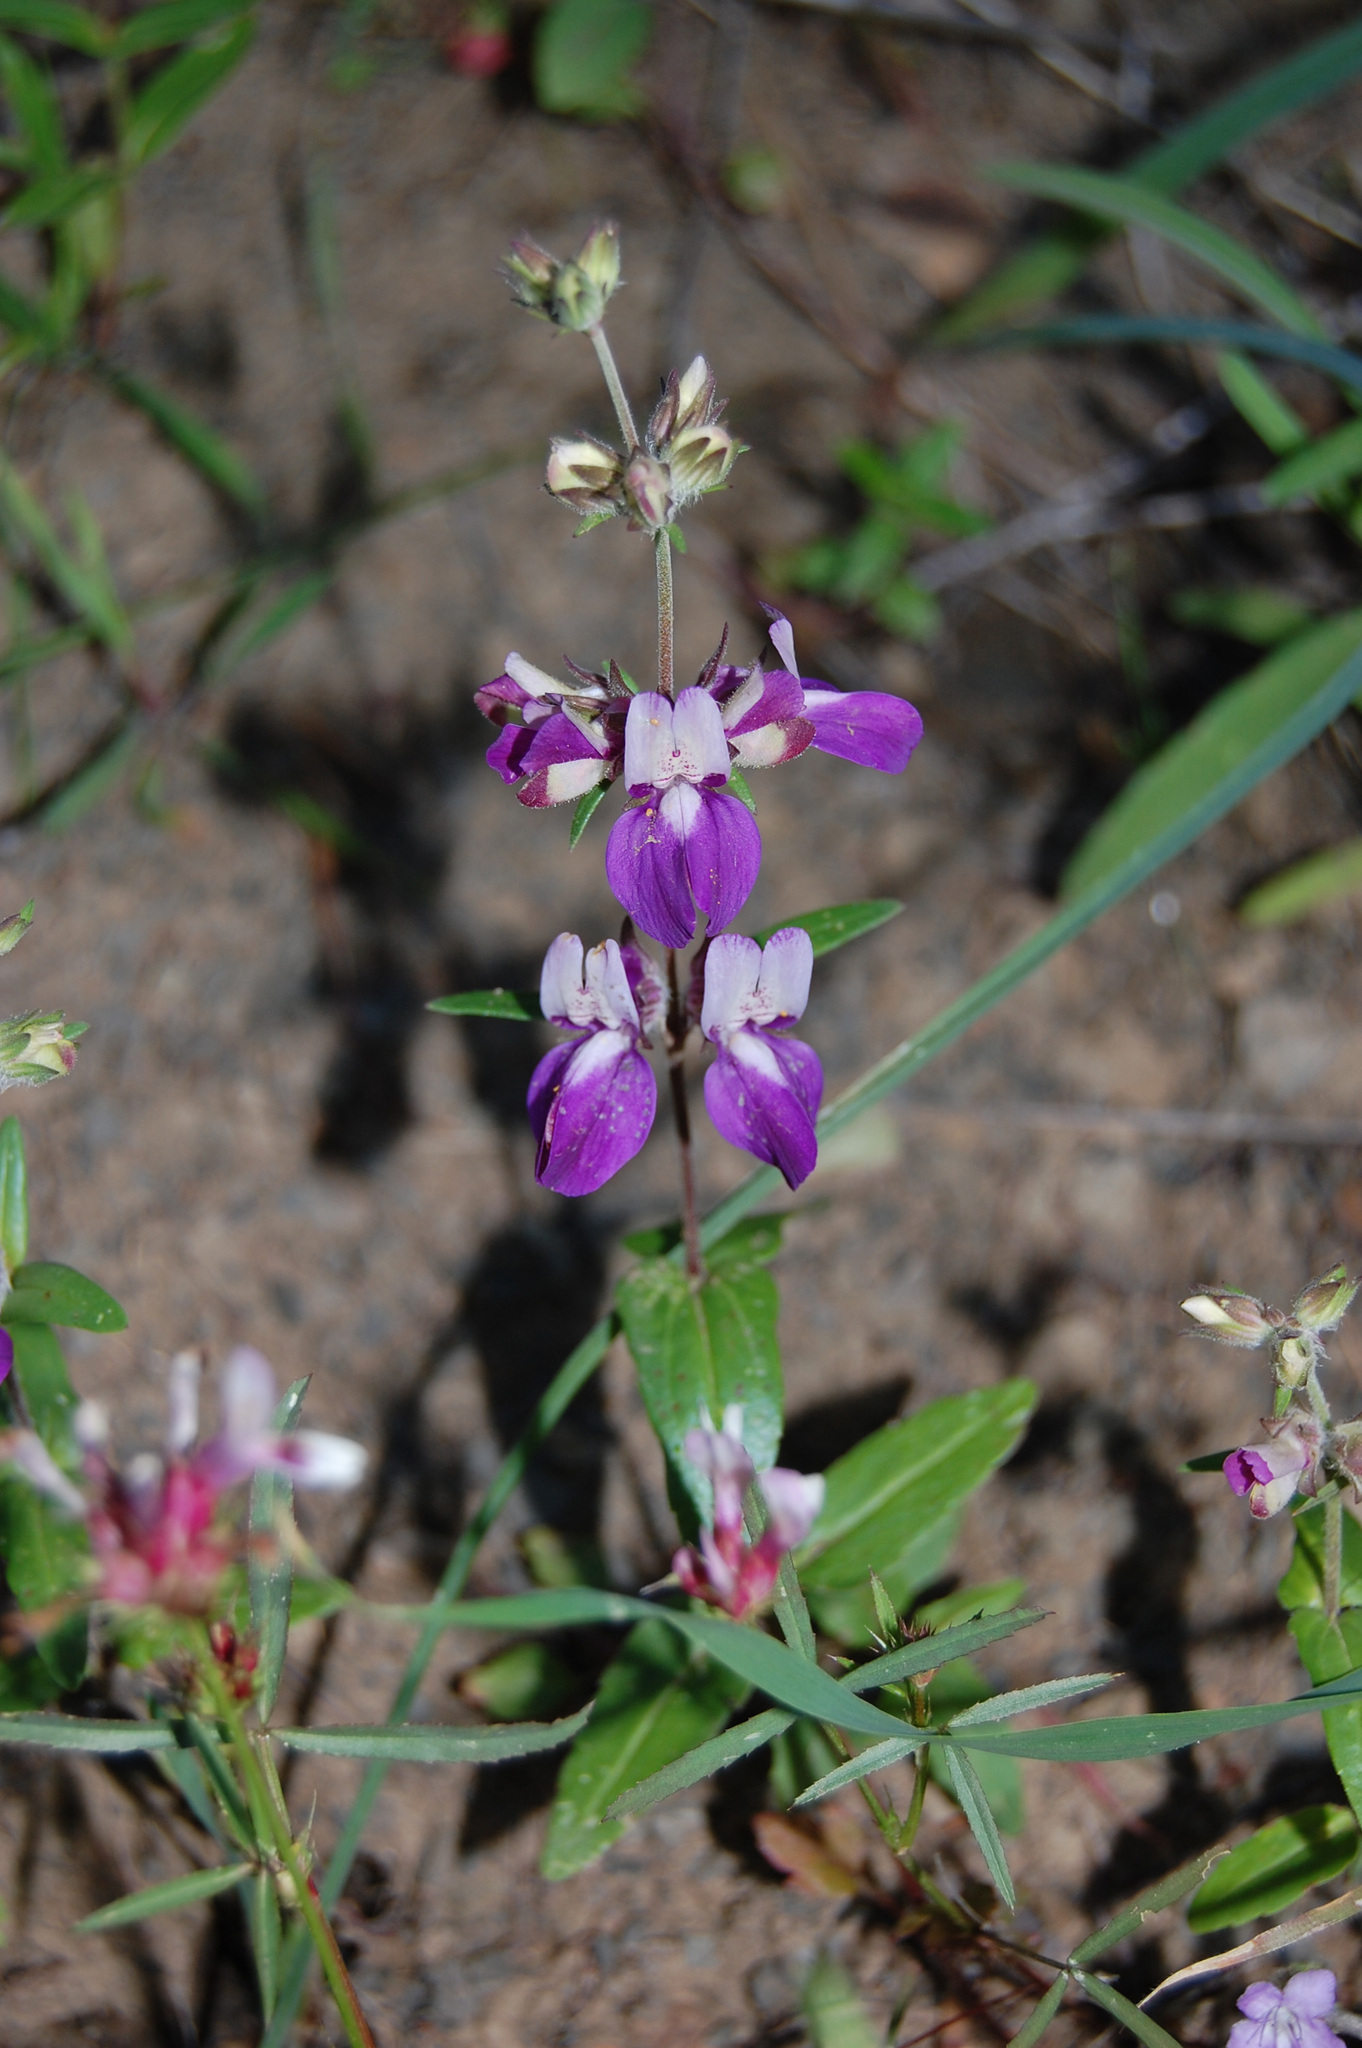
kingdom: Plantae
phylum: Tracheophyta
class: Magnoliopsida
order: Lamiales
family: Plantaginaceae
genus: Collinsia
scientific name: Collinsia heterophylla
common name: Chinese-houses
